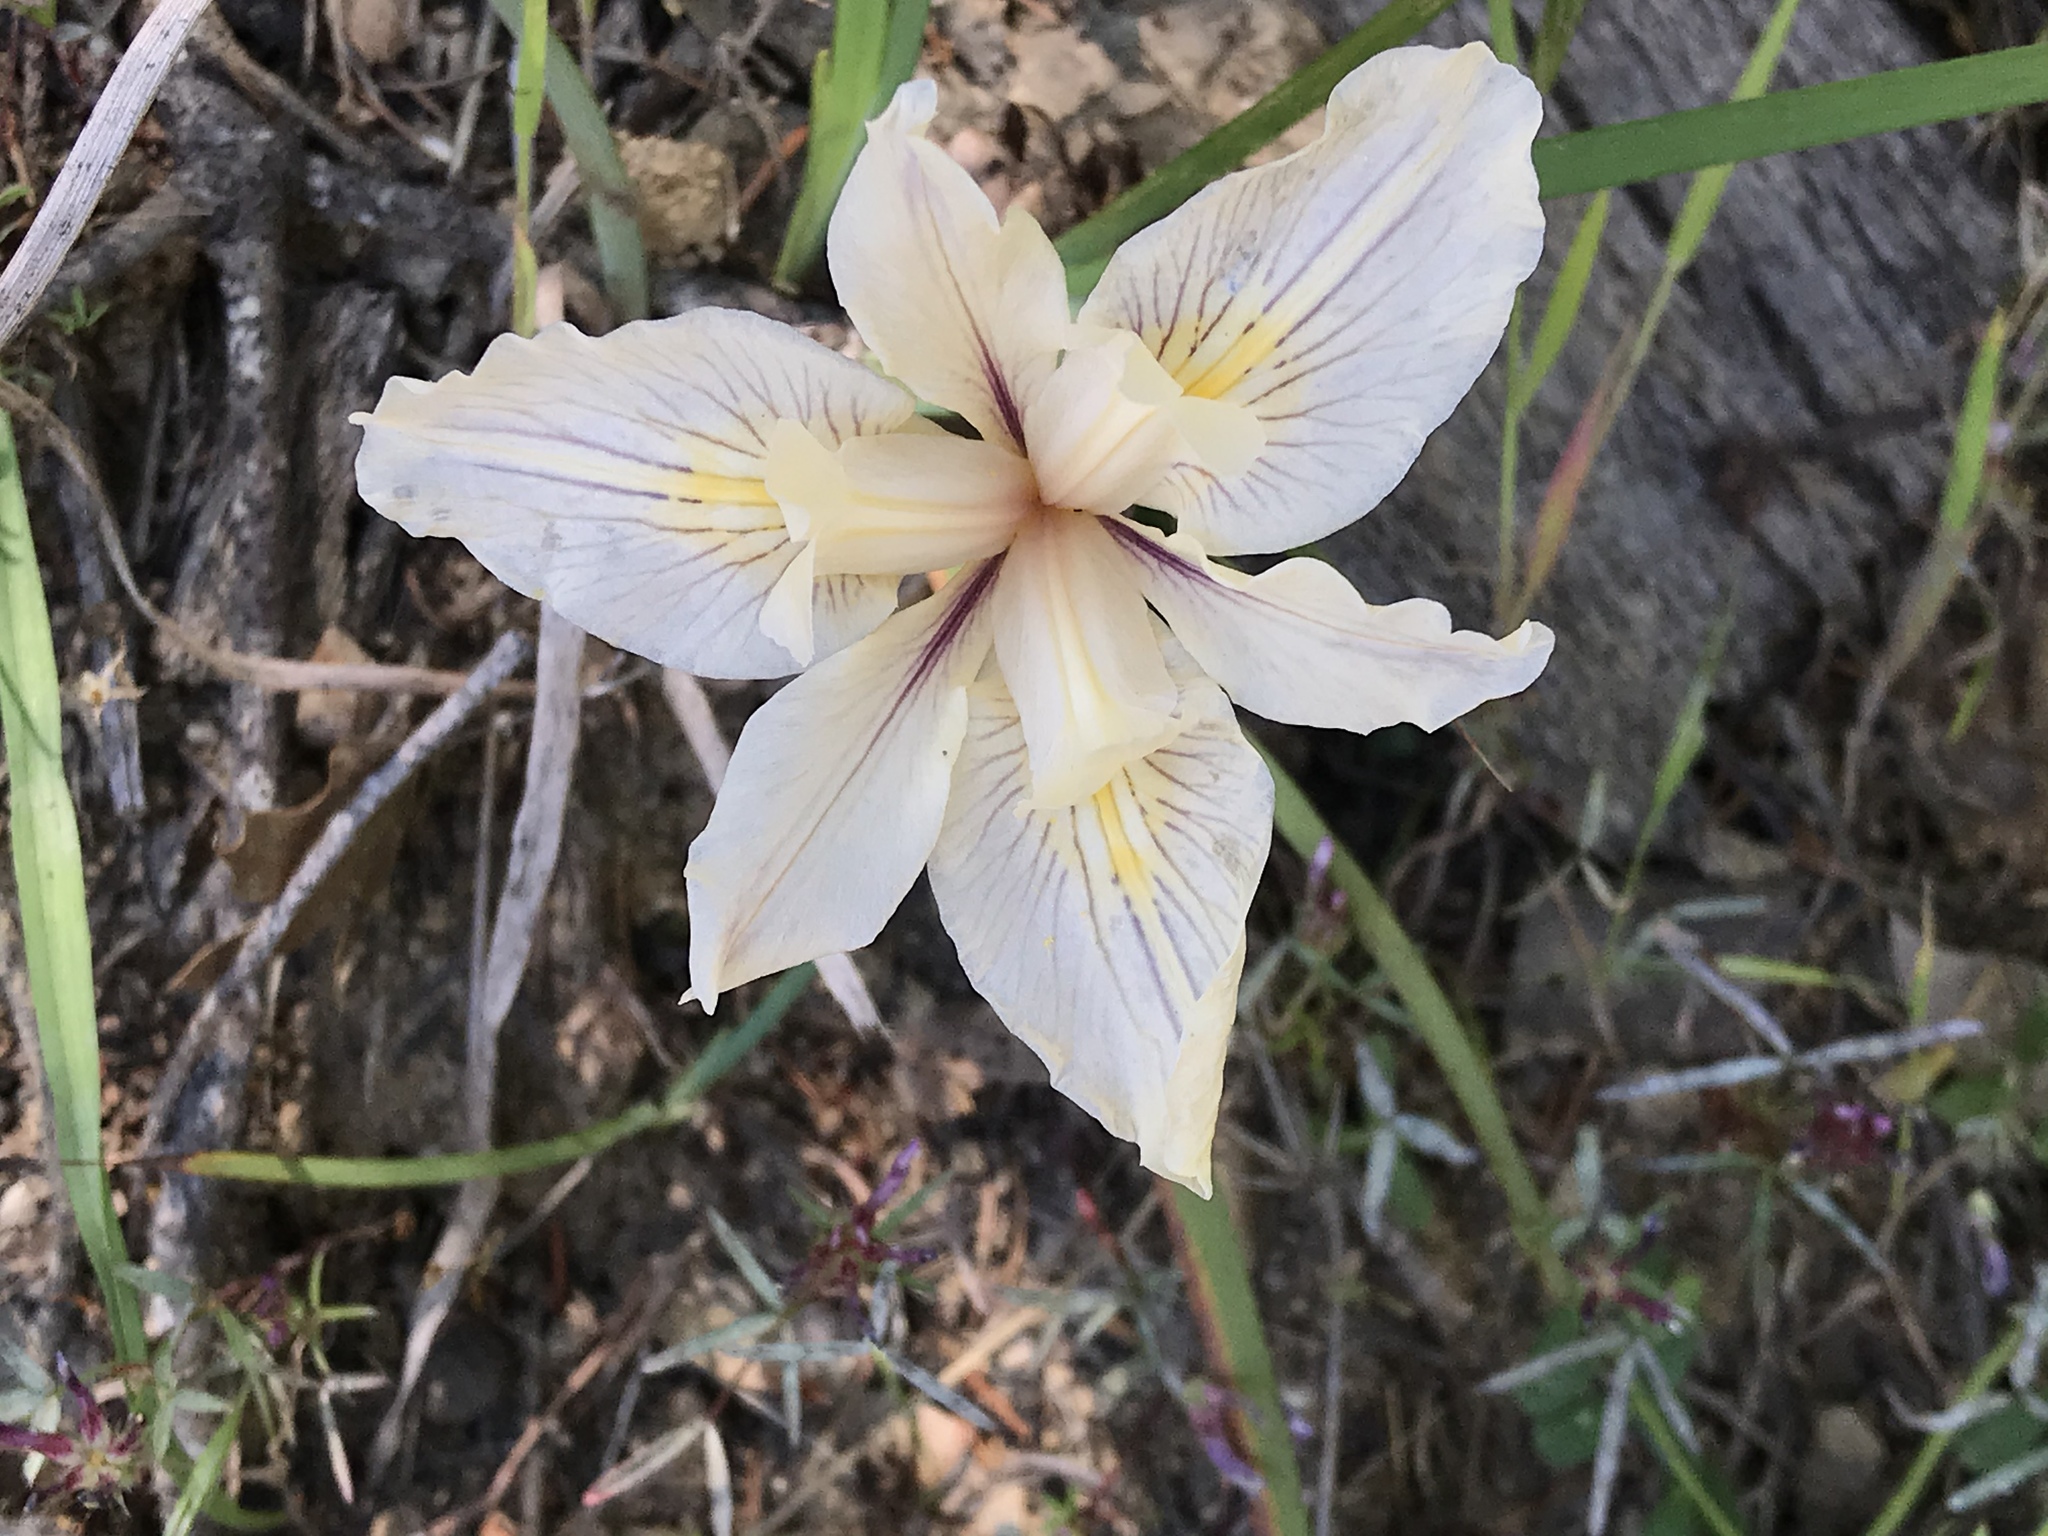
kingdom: Plantae
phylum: Tracheophyta
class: Liliopsida
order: Asparagales
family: Iridaceae
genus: Iris
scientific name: Iris fernaldii
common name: Fernald's iris
